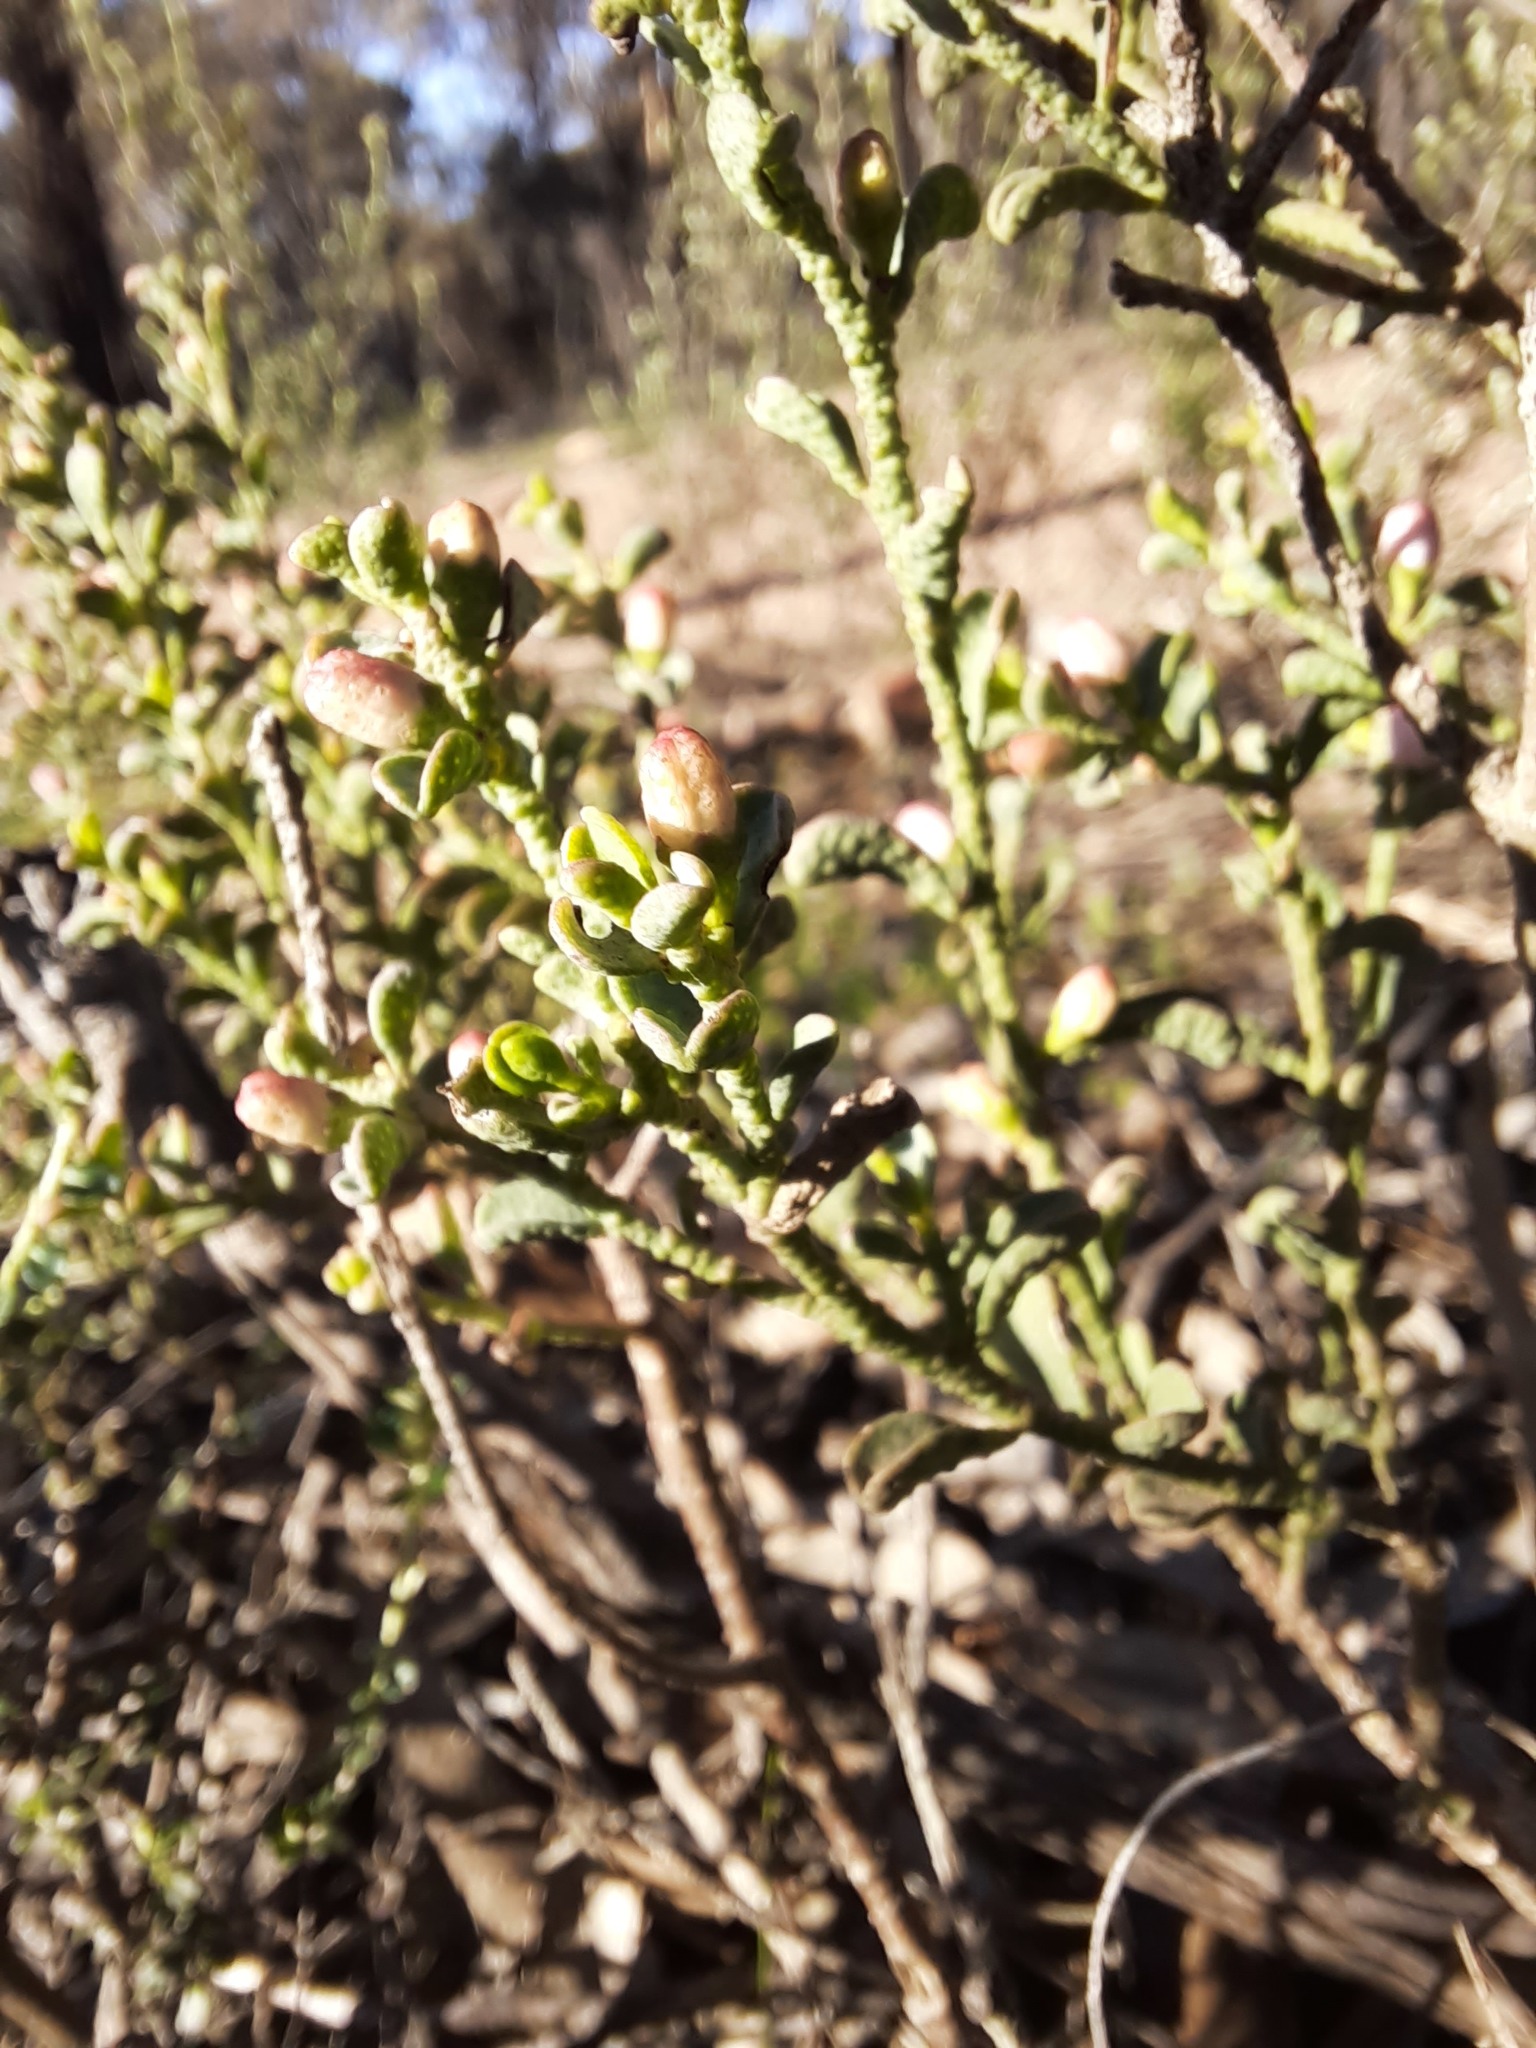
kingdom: Plantae
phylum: Tracheophyta
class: Magnoliopsida
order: Sapindales
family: Rutaceae
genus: Philotheca
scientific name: Philotheca verrucosa
